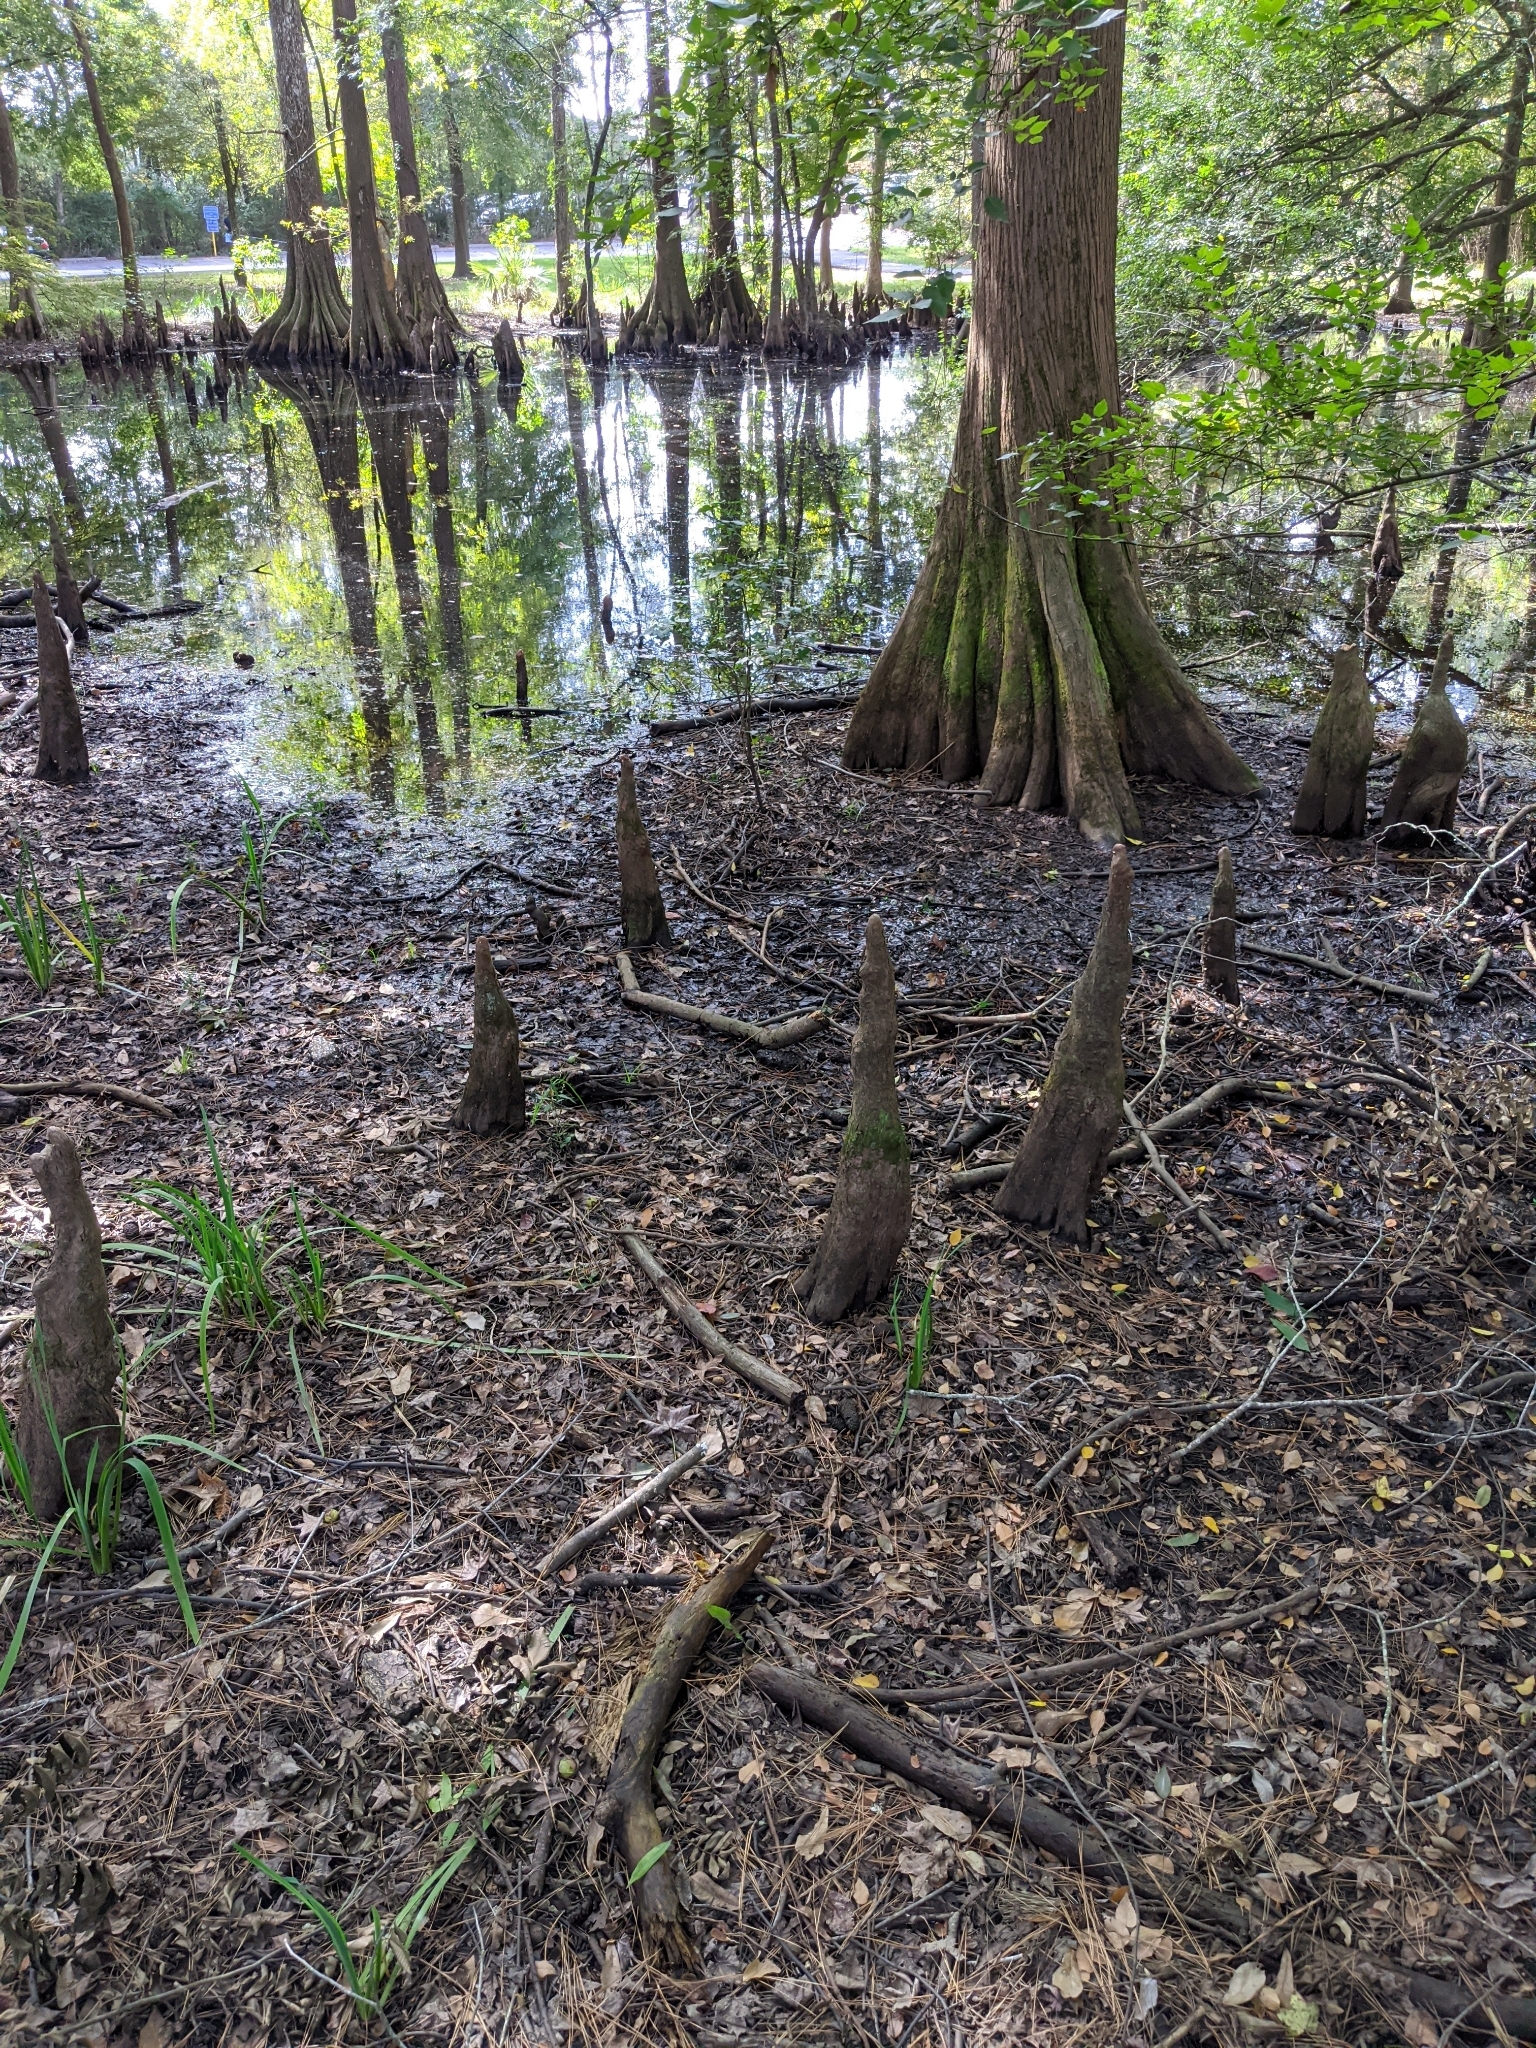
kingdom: Plantae
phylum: Tracheophyta
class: Pinopsida
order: Pinales
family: Cupressaceae
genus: Taxodium
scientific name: Taxodium distichum
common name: Bald cypress
